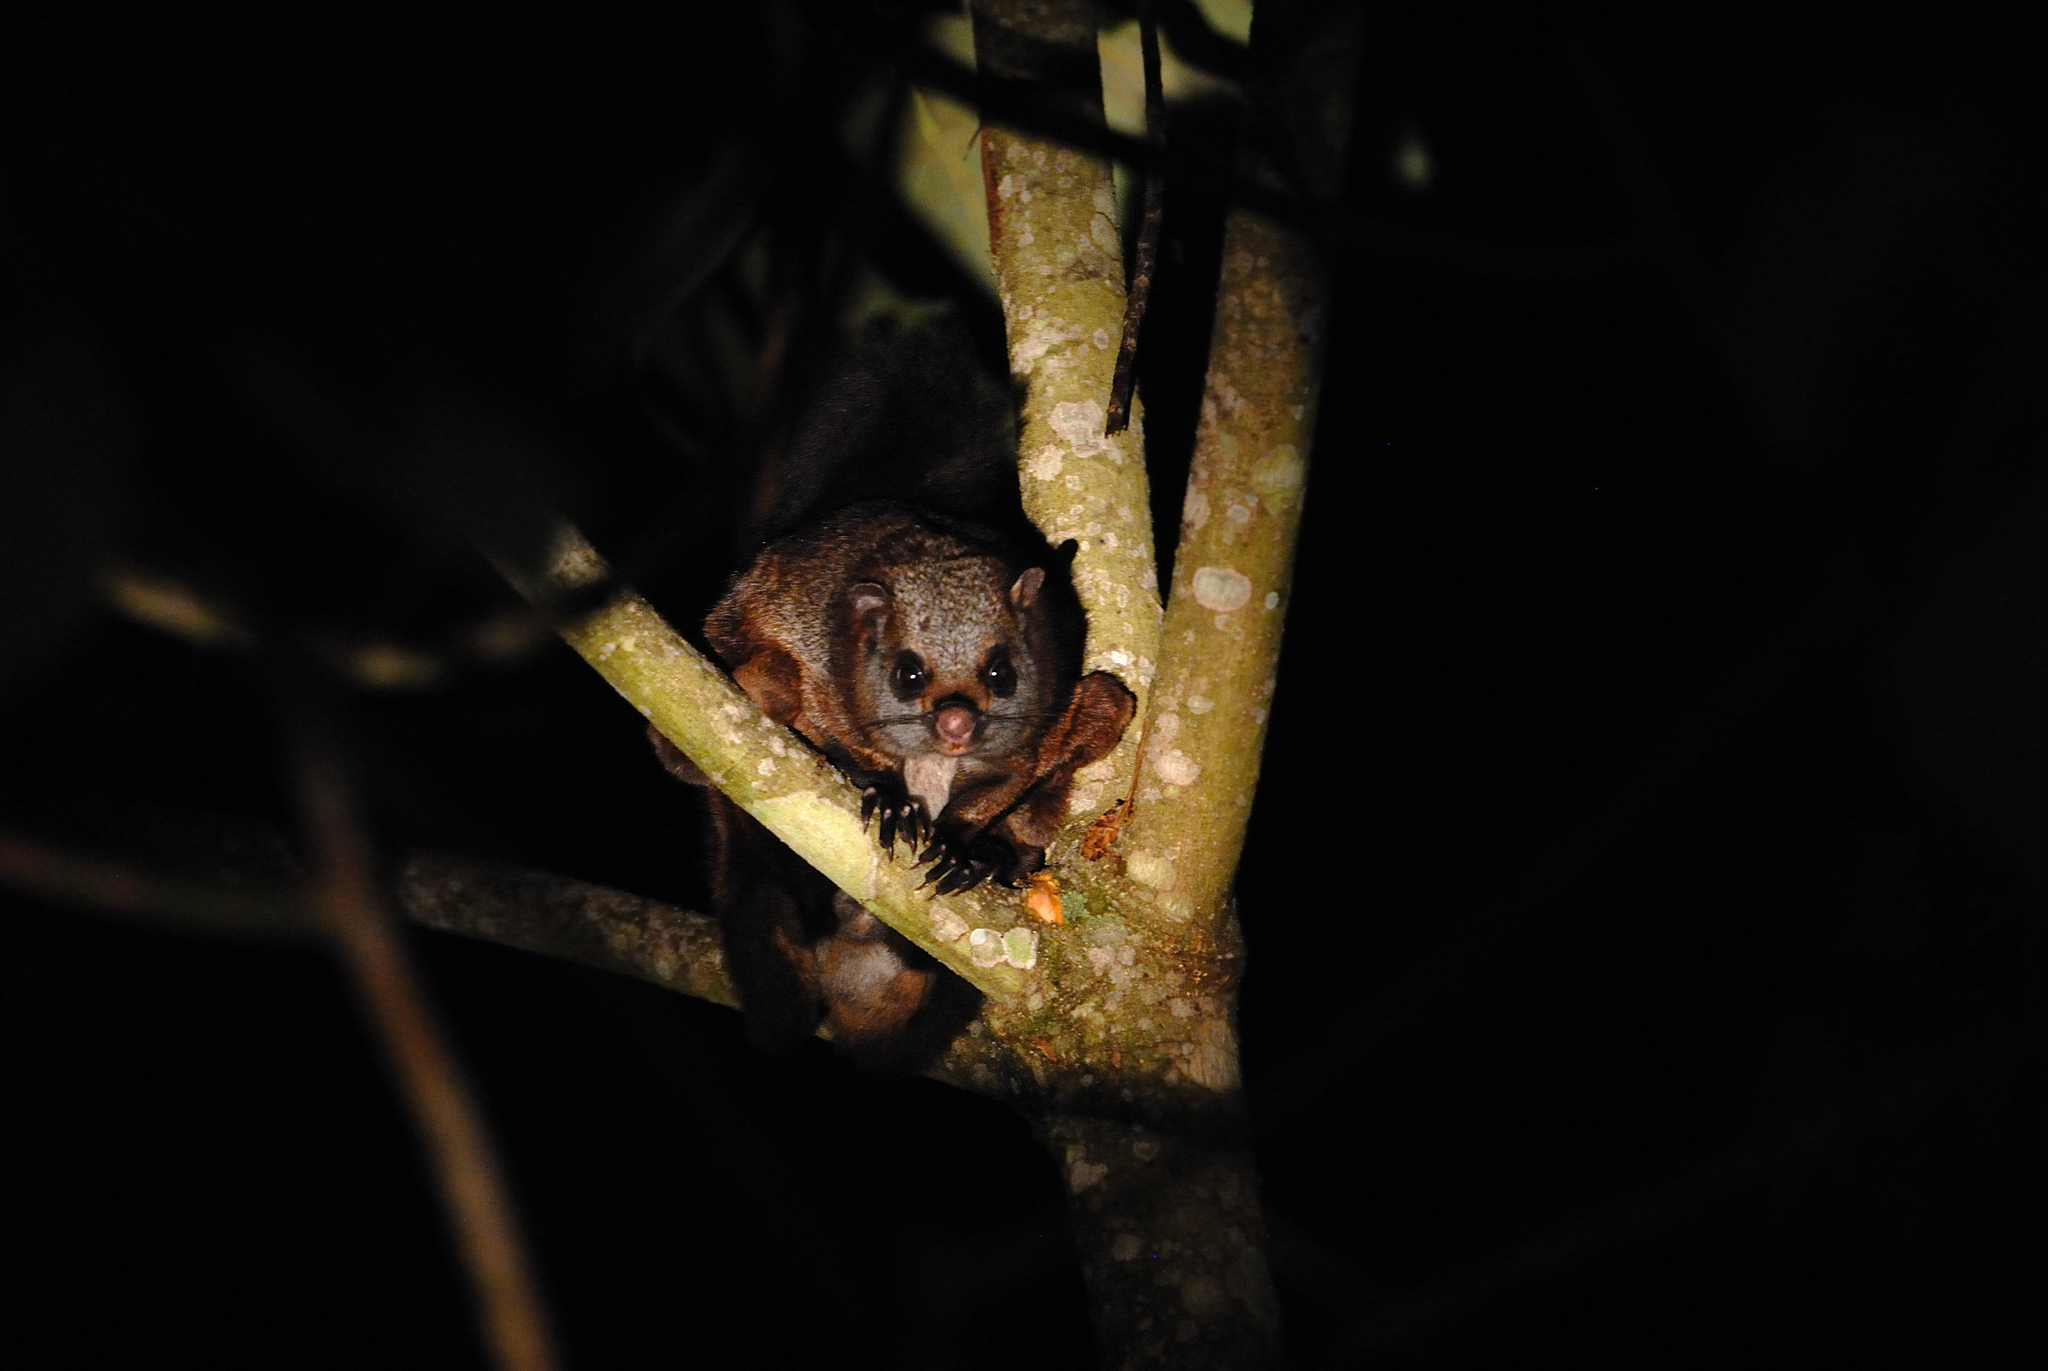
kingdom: Animalia
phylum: Chordata
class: Mammalia
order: Rodentia
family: Sciuridae
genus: Petaurista
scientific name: Petaurista philippensis
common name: Indian giant flying squirrel
